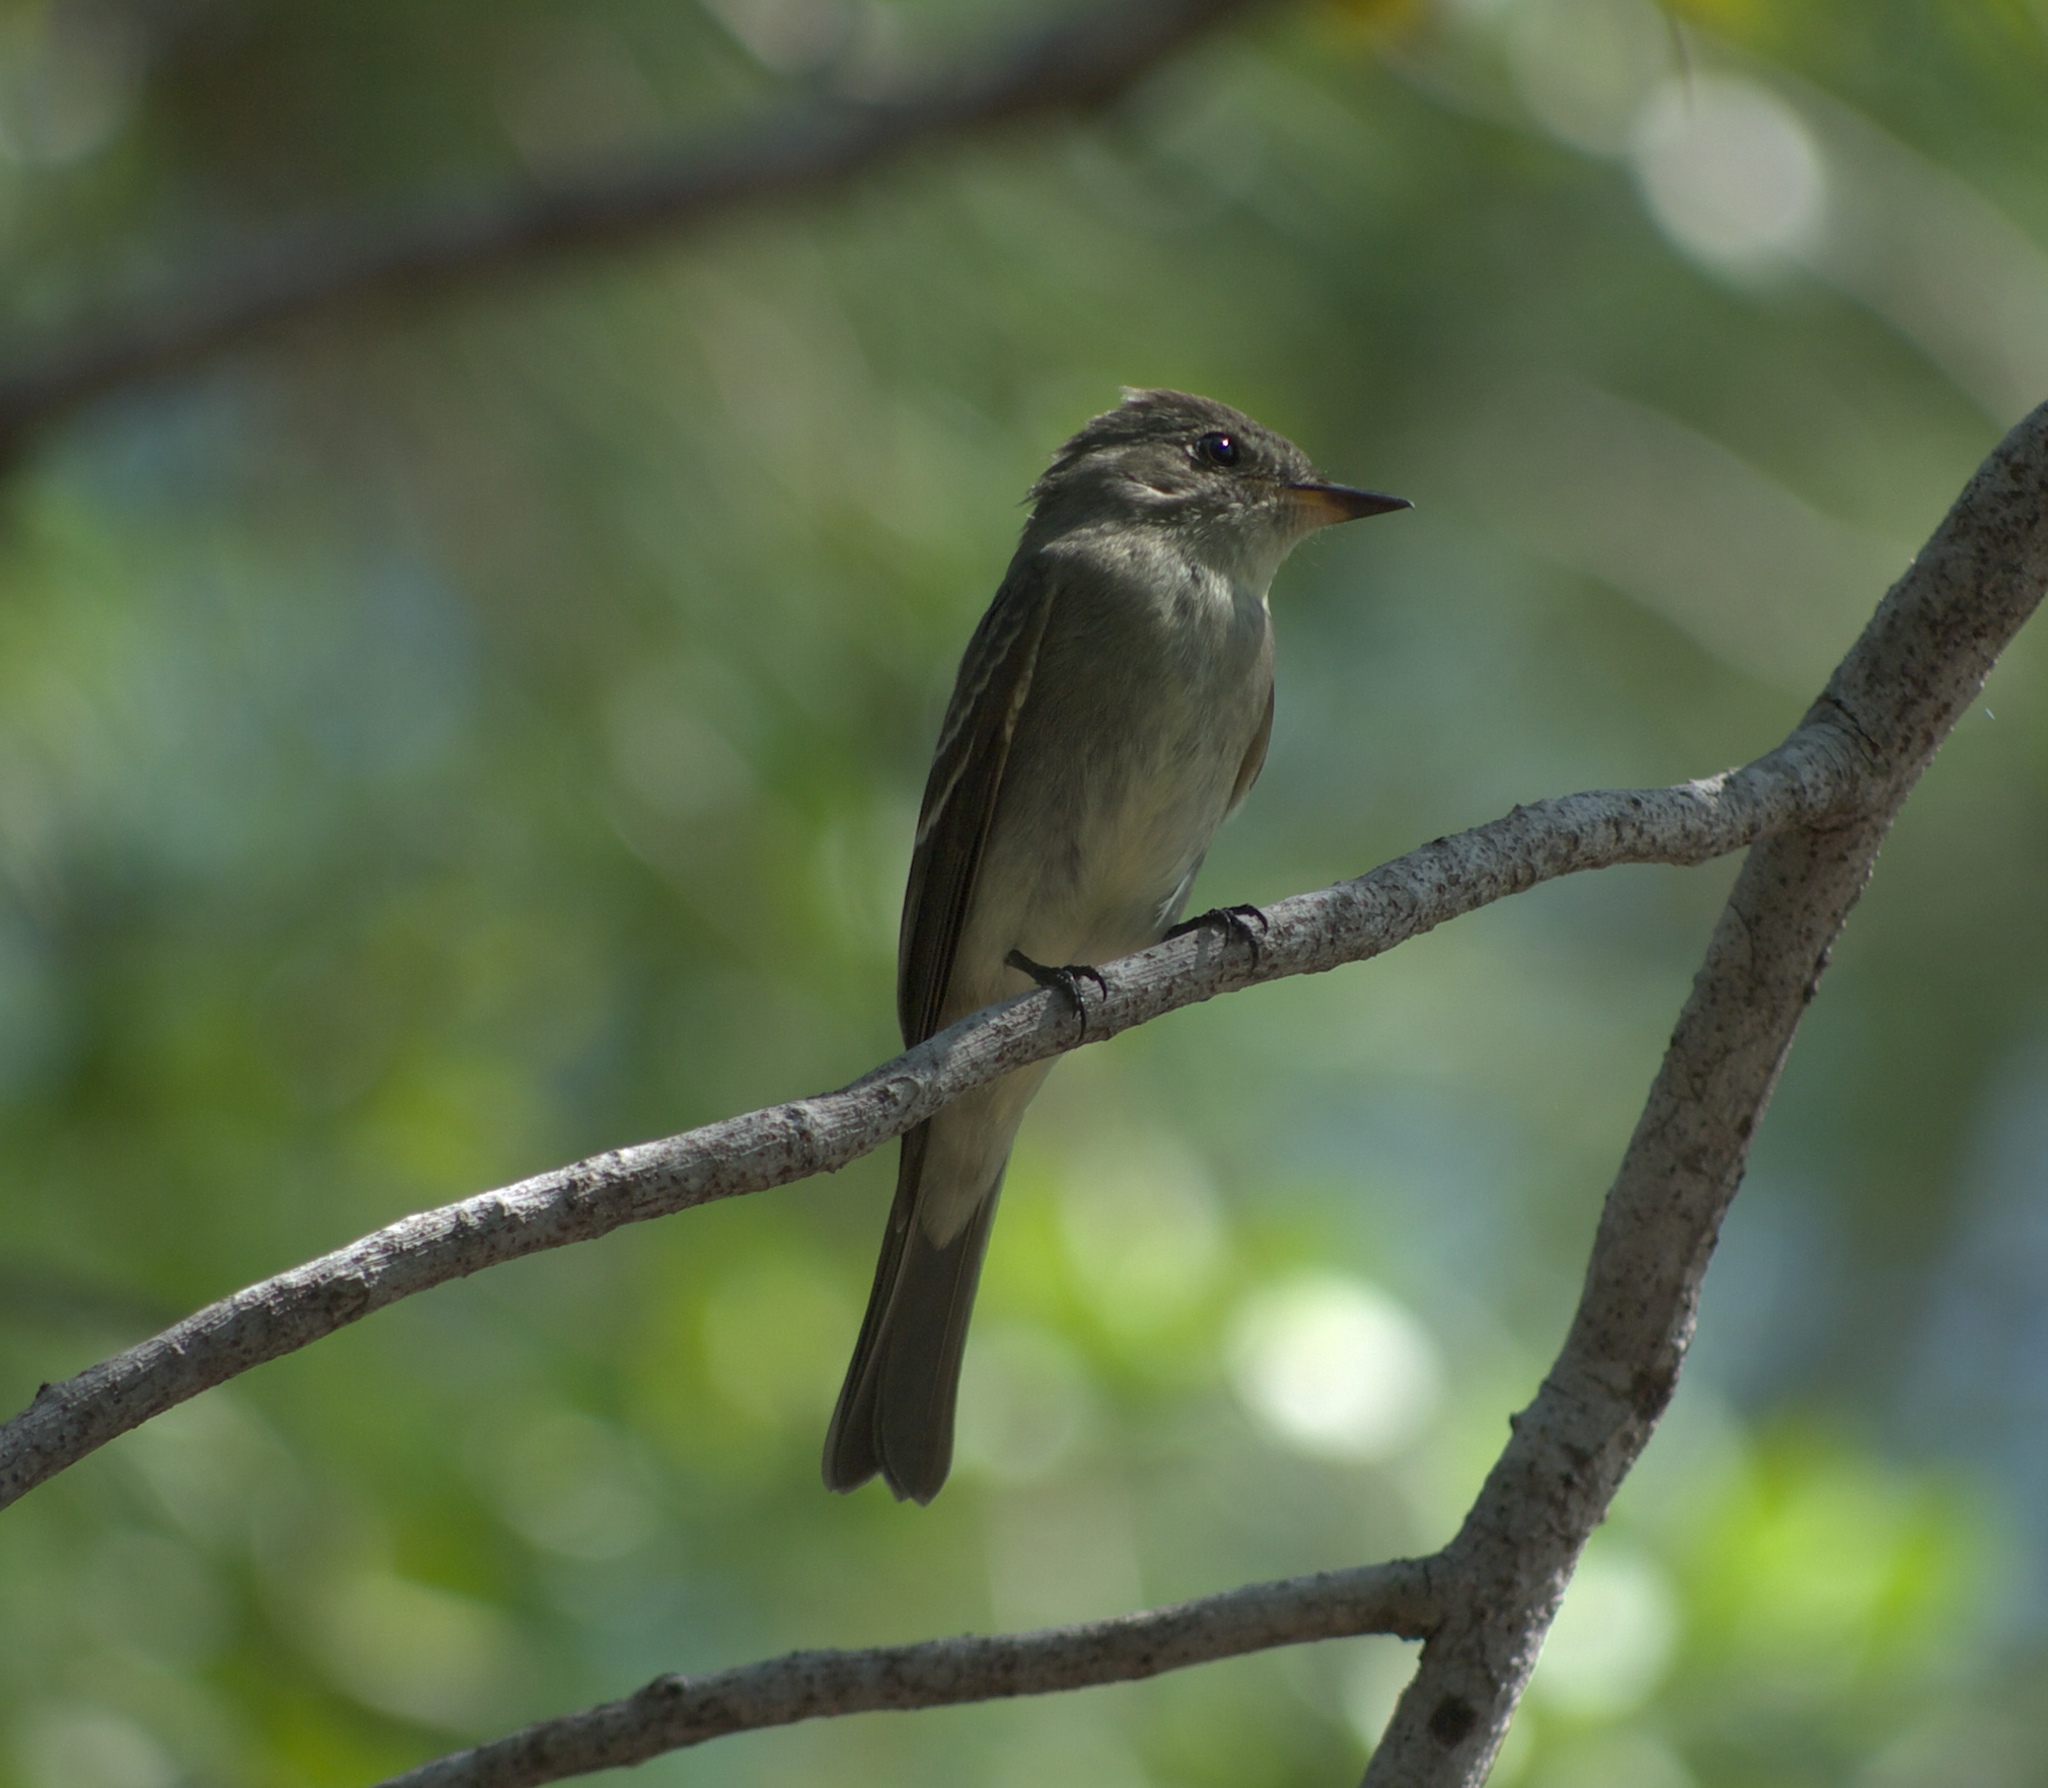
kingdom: Animalia
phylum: Chordata
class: Aves
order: Passeriformes
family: Tyrannidae
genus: Contopus
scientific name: Contopus virens
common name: Eastern wood-pewee
